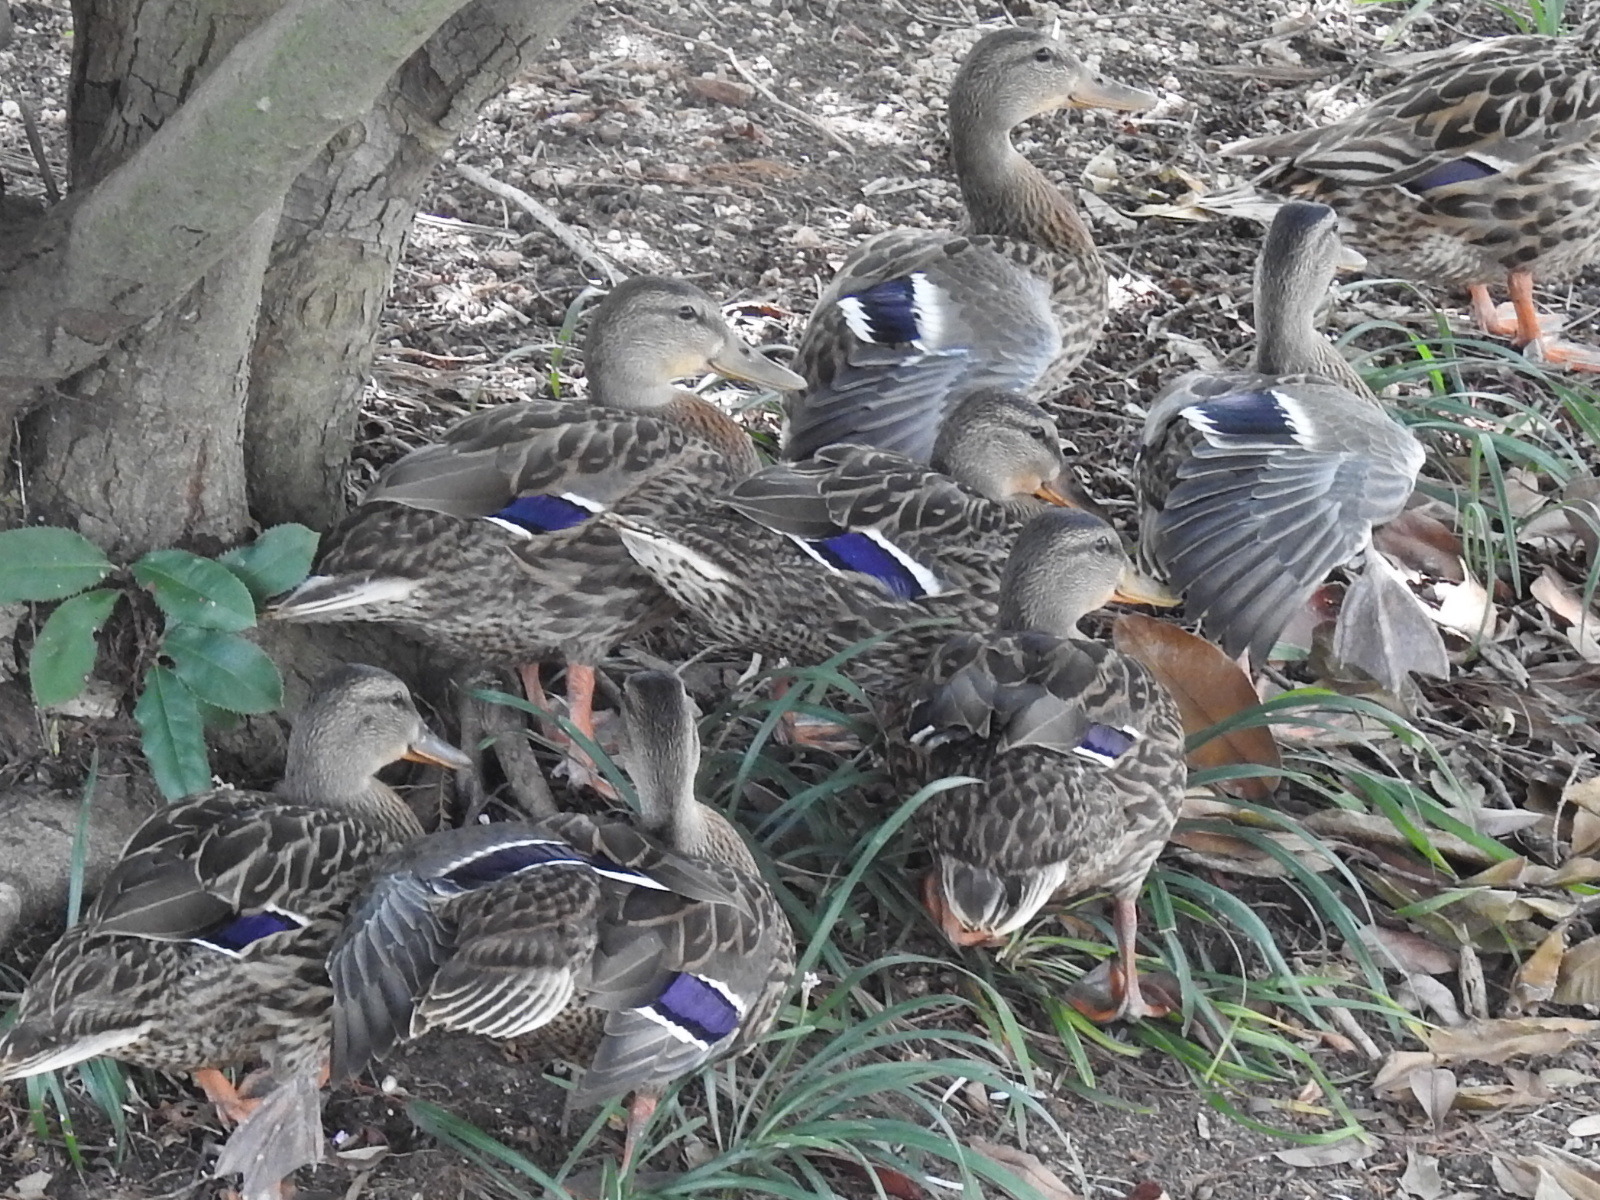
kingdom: Animalia
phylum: Chordata
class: Aves
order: Anseriformes
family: Anatidae
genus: Anas
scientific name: Anas platyrhynchos
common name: Mallard
